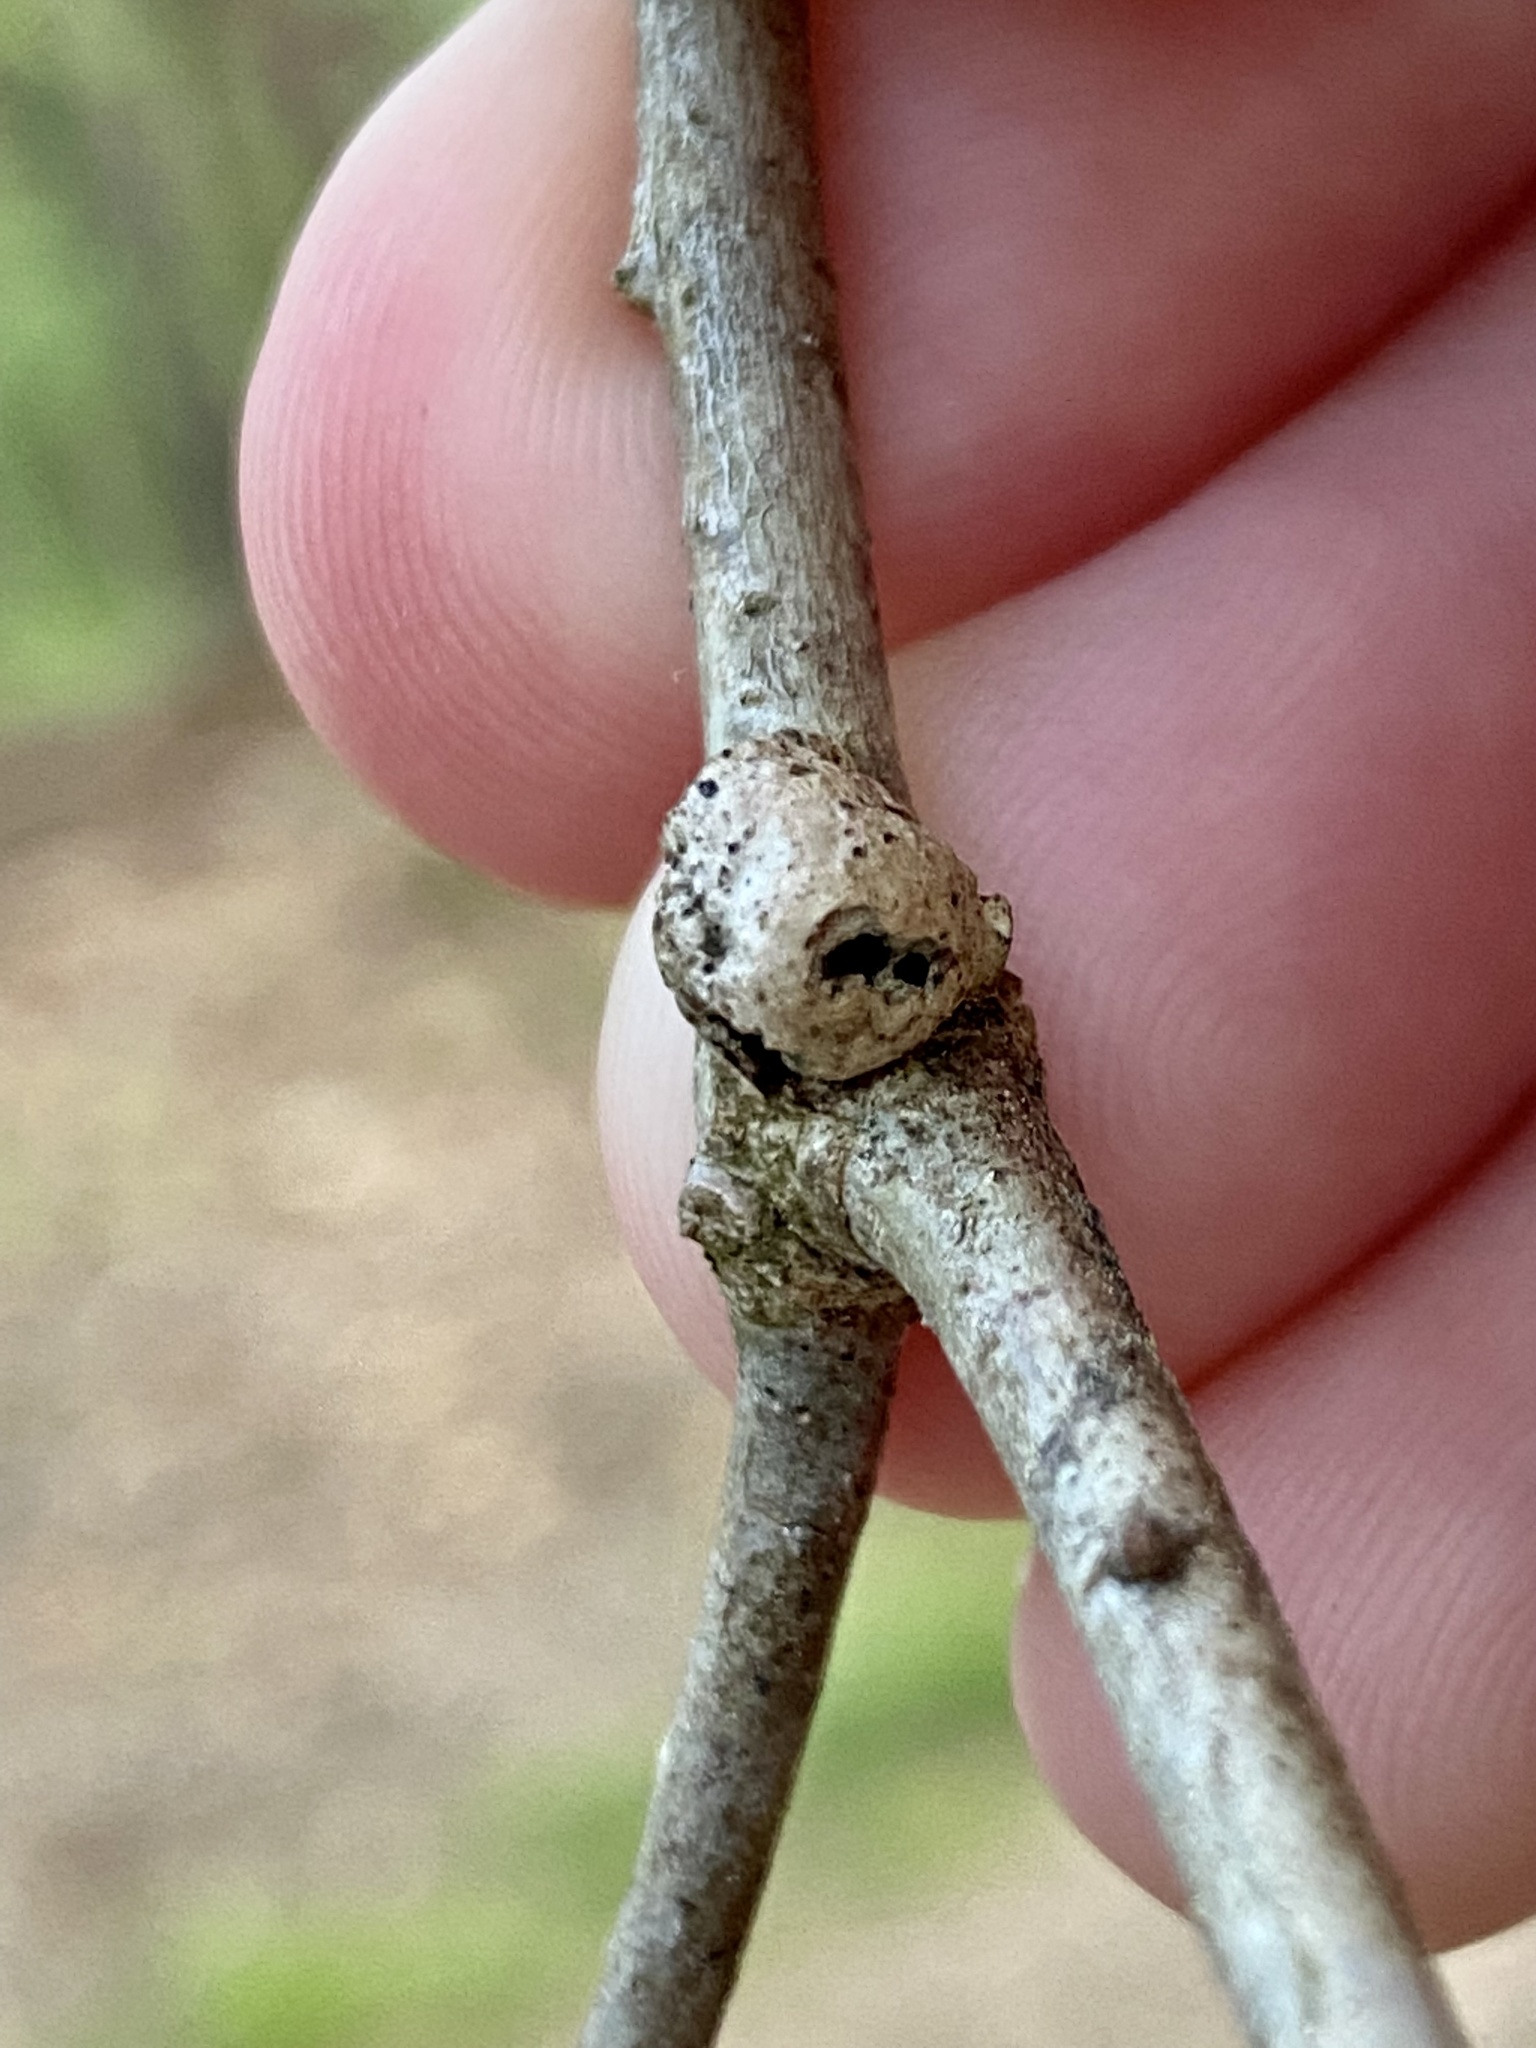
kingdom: Animalia
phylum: Arthropoda
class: Insecta
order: Hymenoptera
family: Cynipidae
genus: Disholcaspis
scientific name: Disholcaspis quercusglobulus
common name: Round bullet gall wasp
